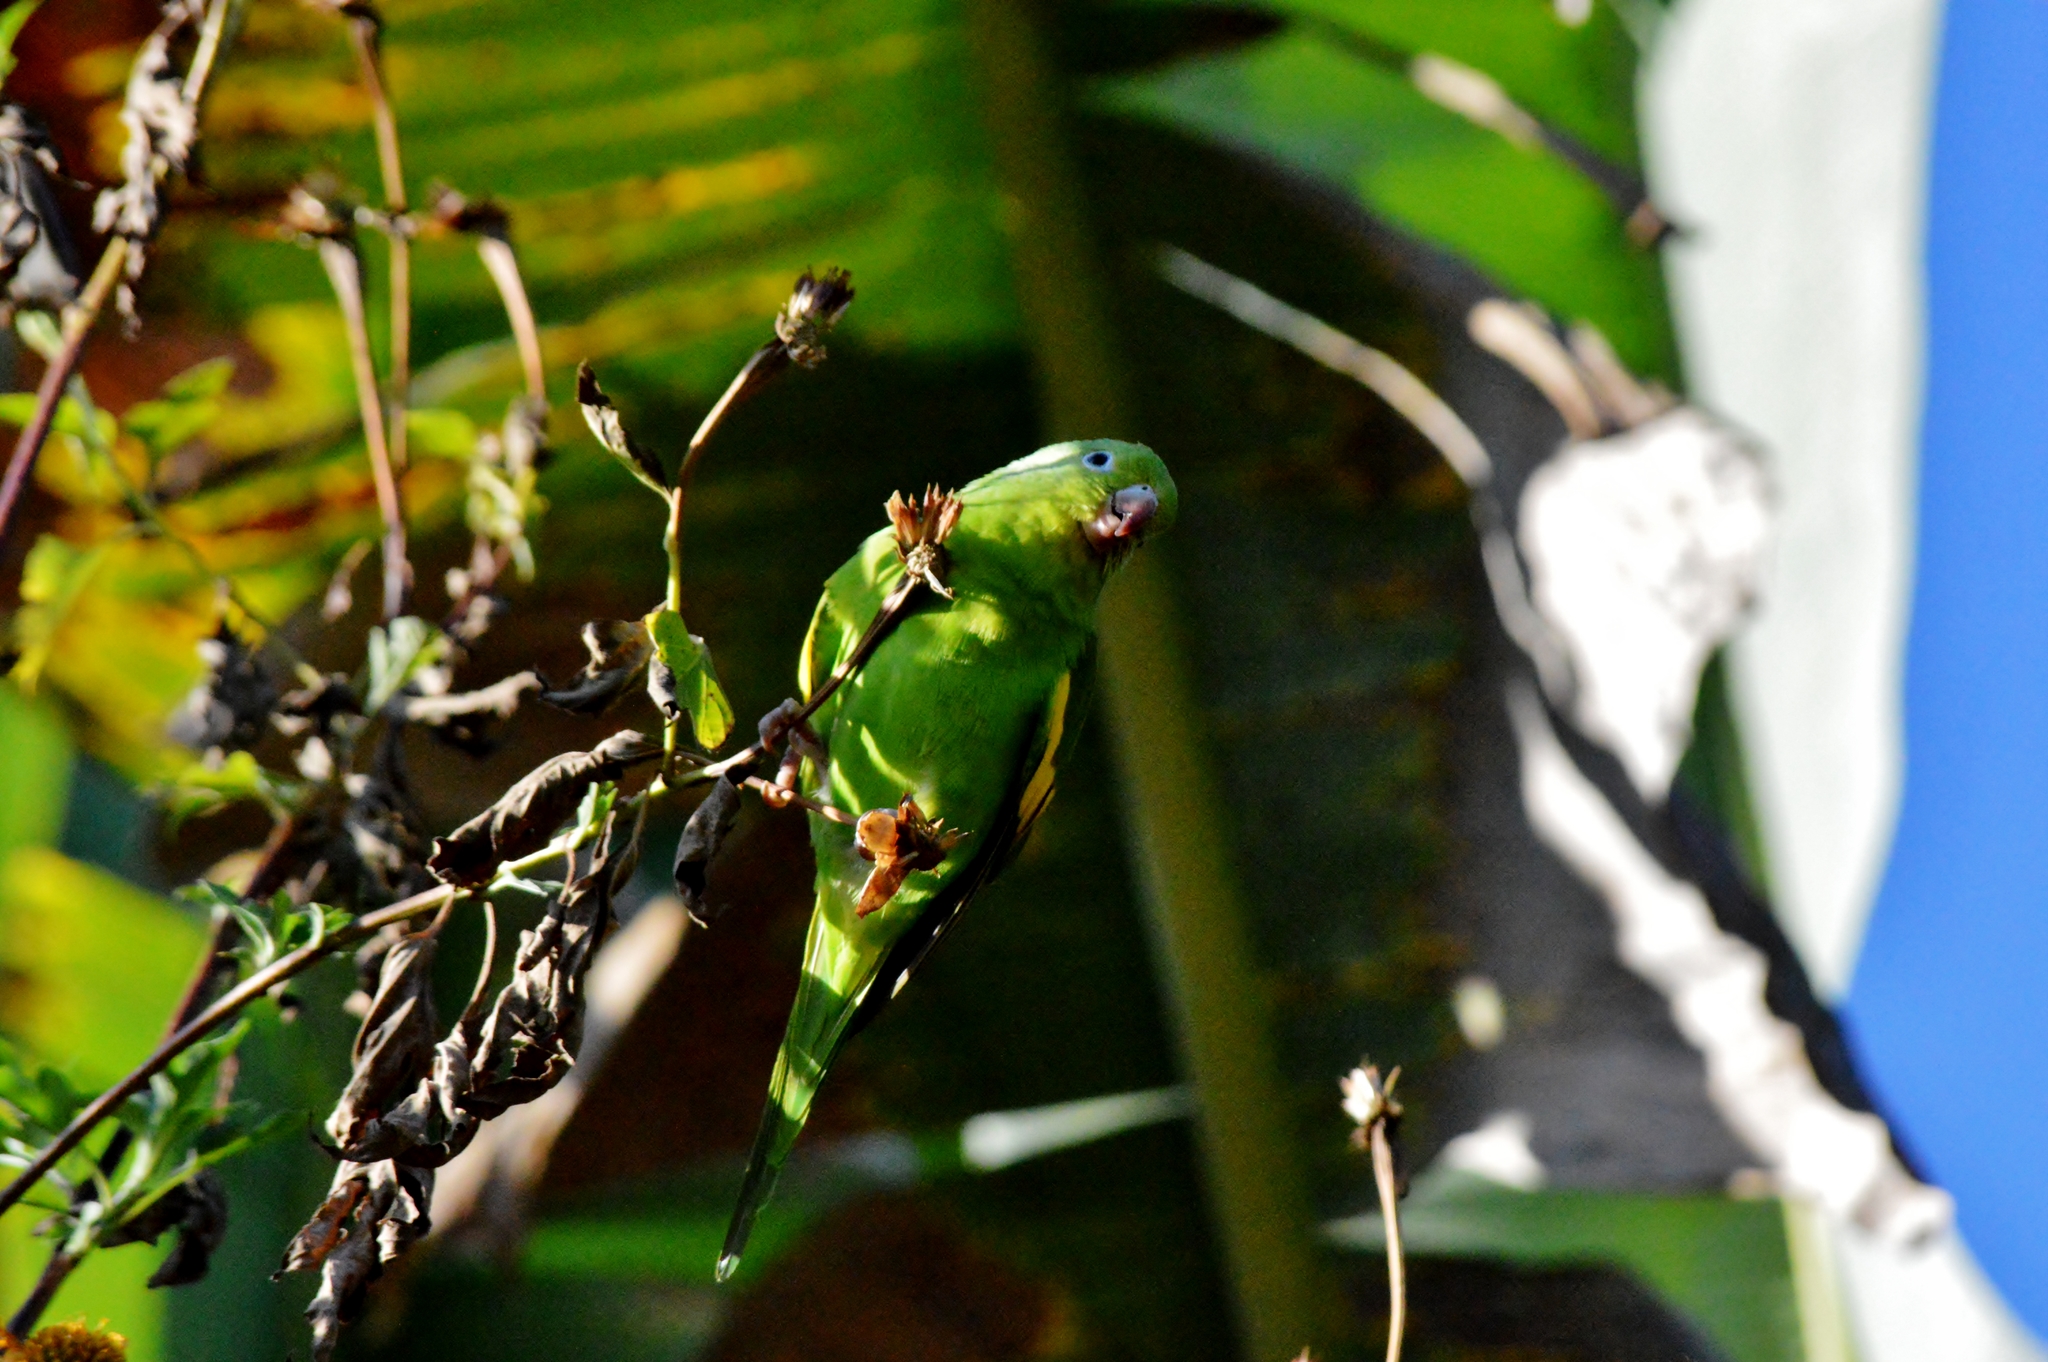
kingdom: Animalia
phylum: Chordata
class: Aves
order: Psittaciformes
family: Psittacidae
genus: Brotogeris
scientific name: Brotogeris chiriri
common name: Yellow-chevroned parakeet
